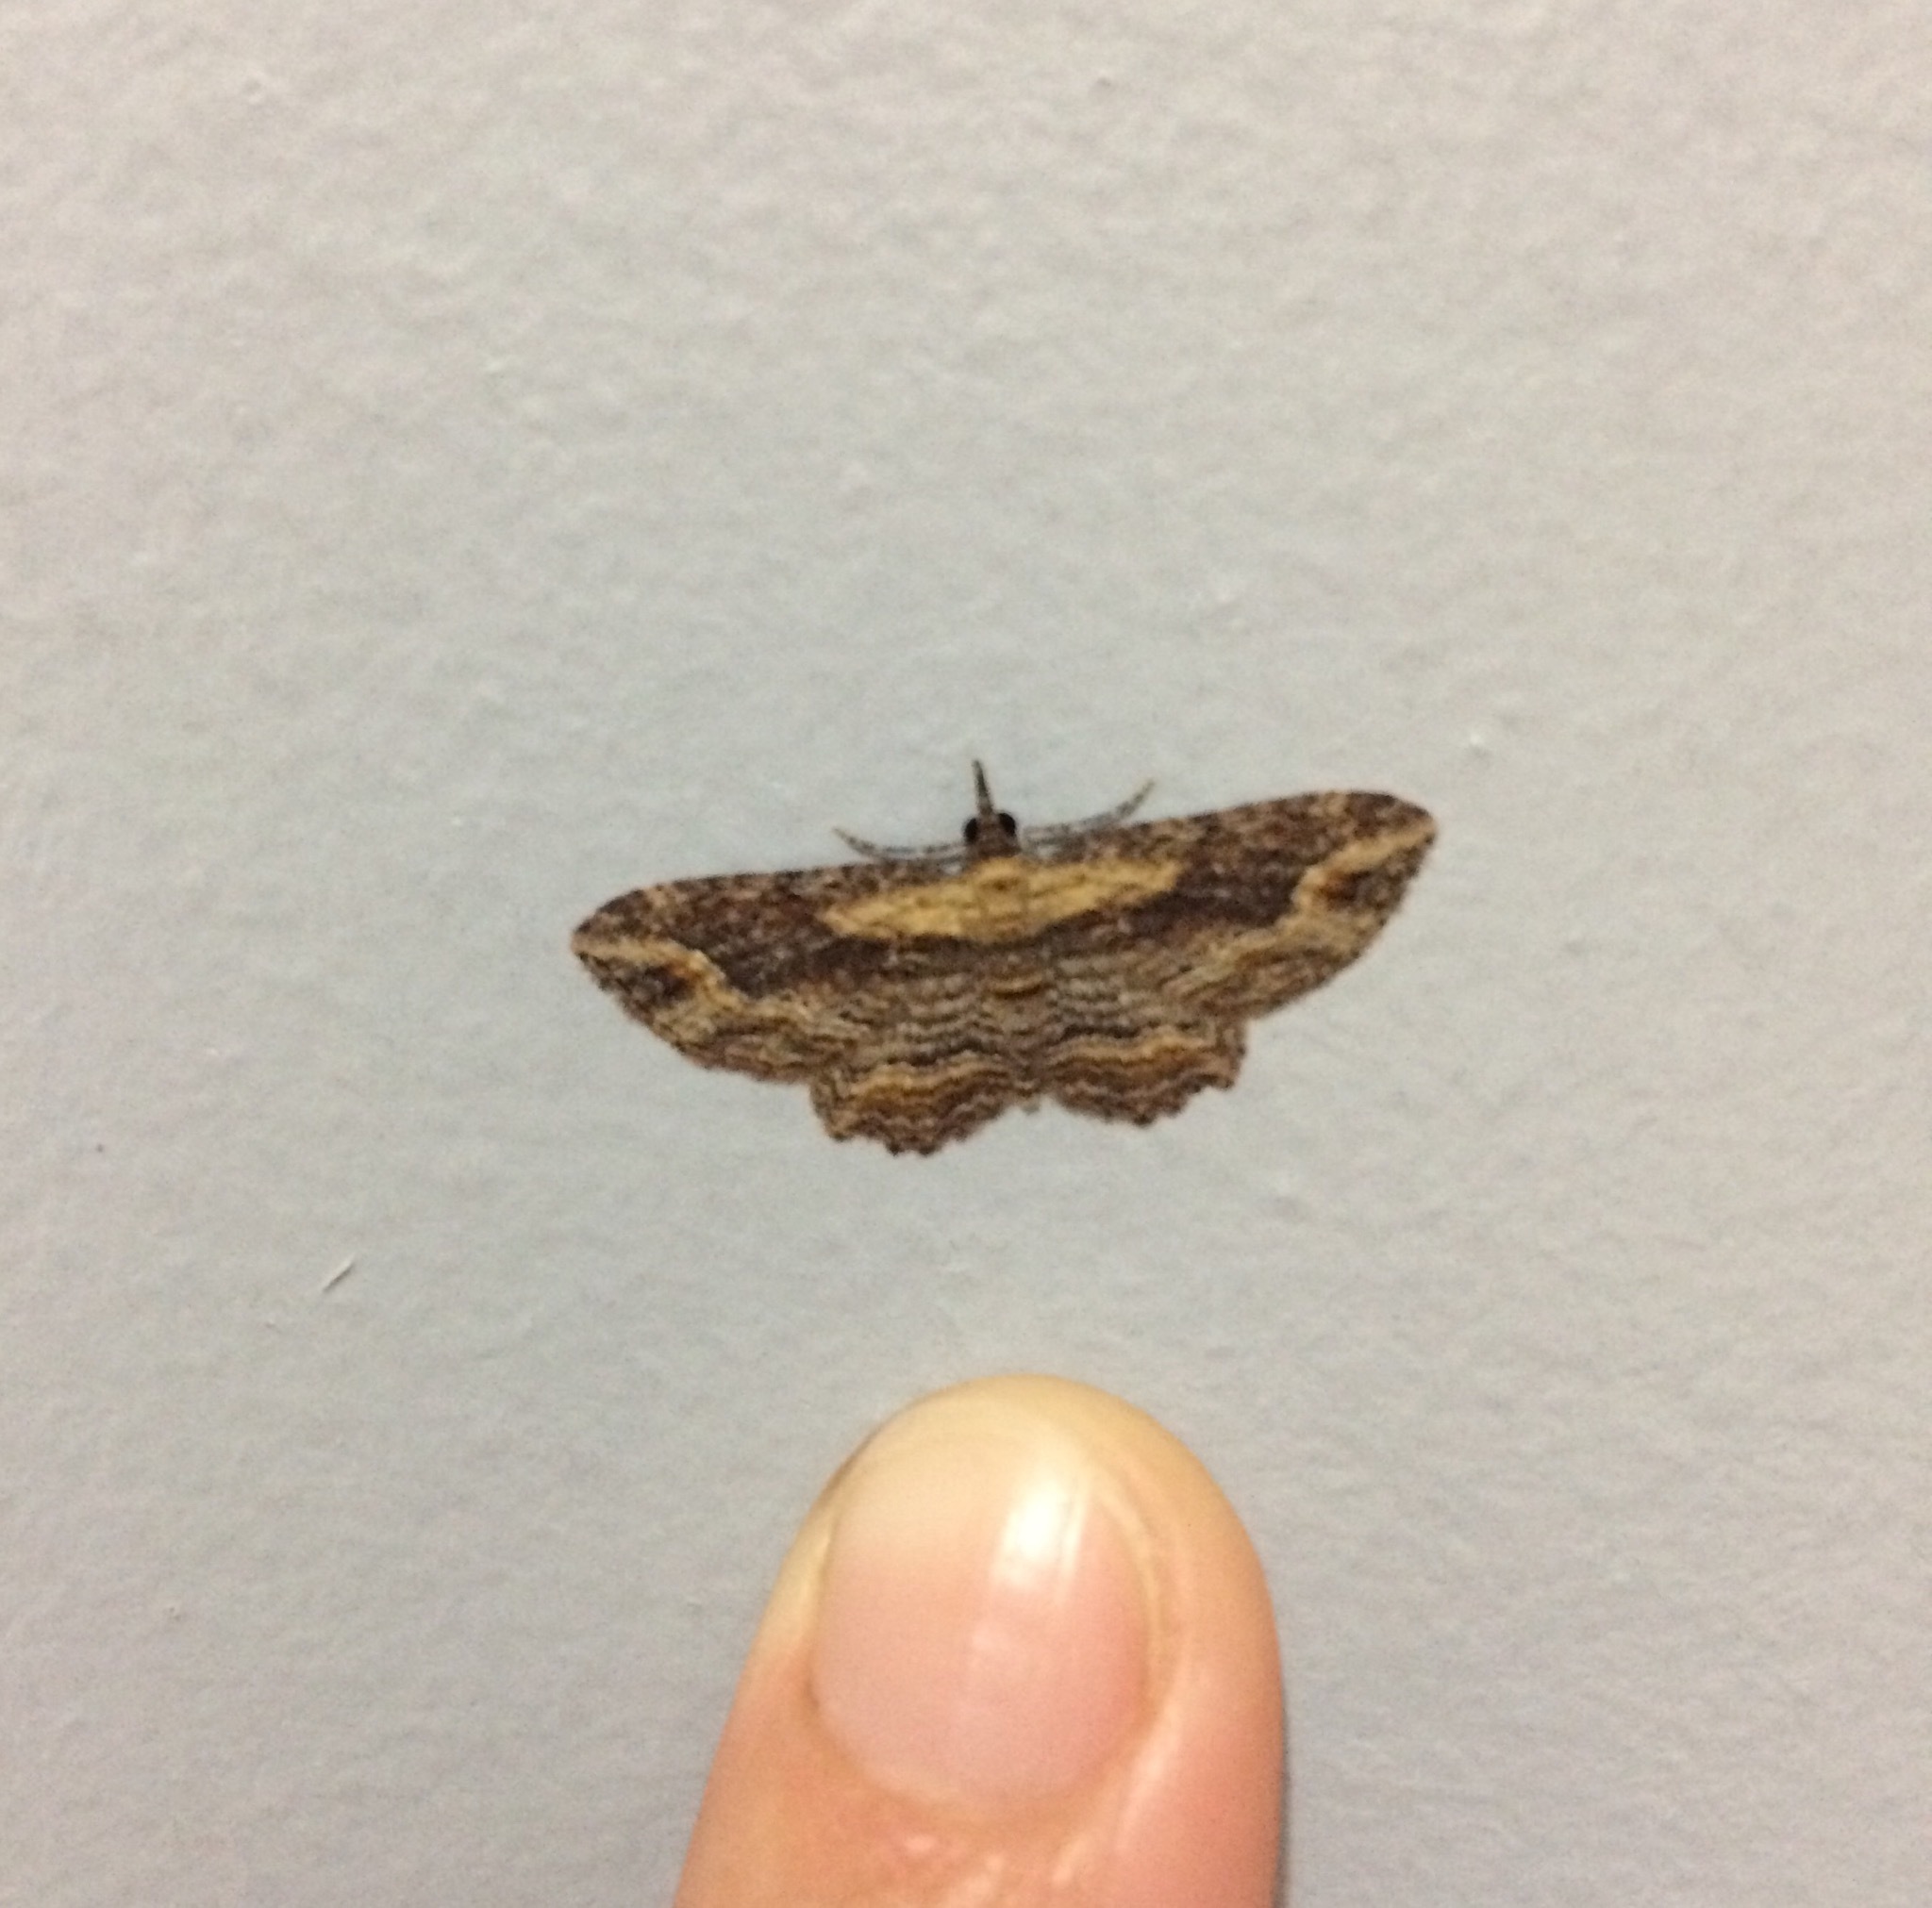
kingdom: Animalia
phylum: Arthropoda
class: Insecta
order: Lepidoptera
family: Geometridae
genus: Chloroclystis
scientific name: Chloroclystis filata
